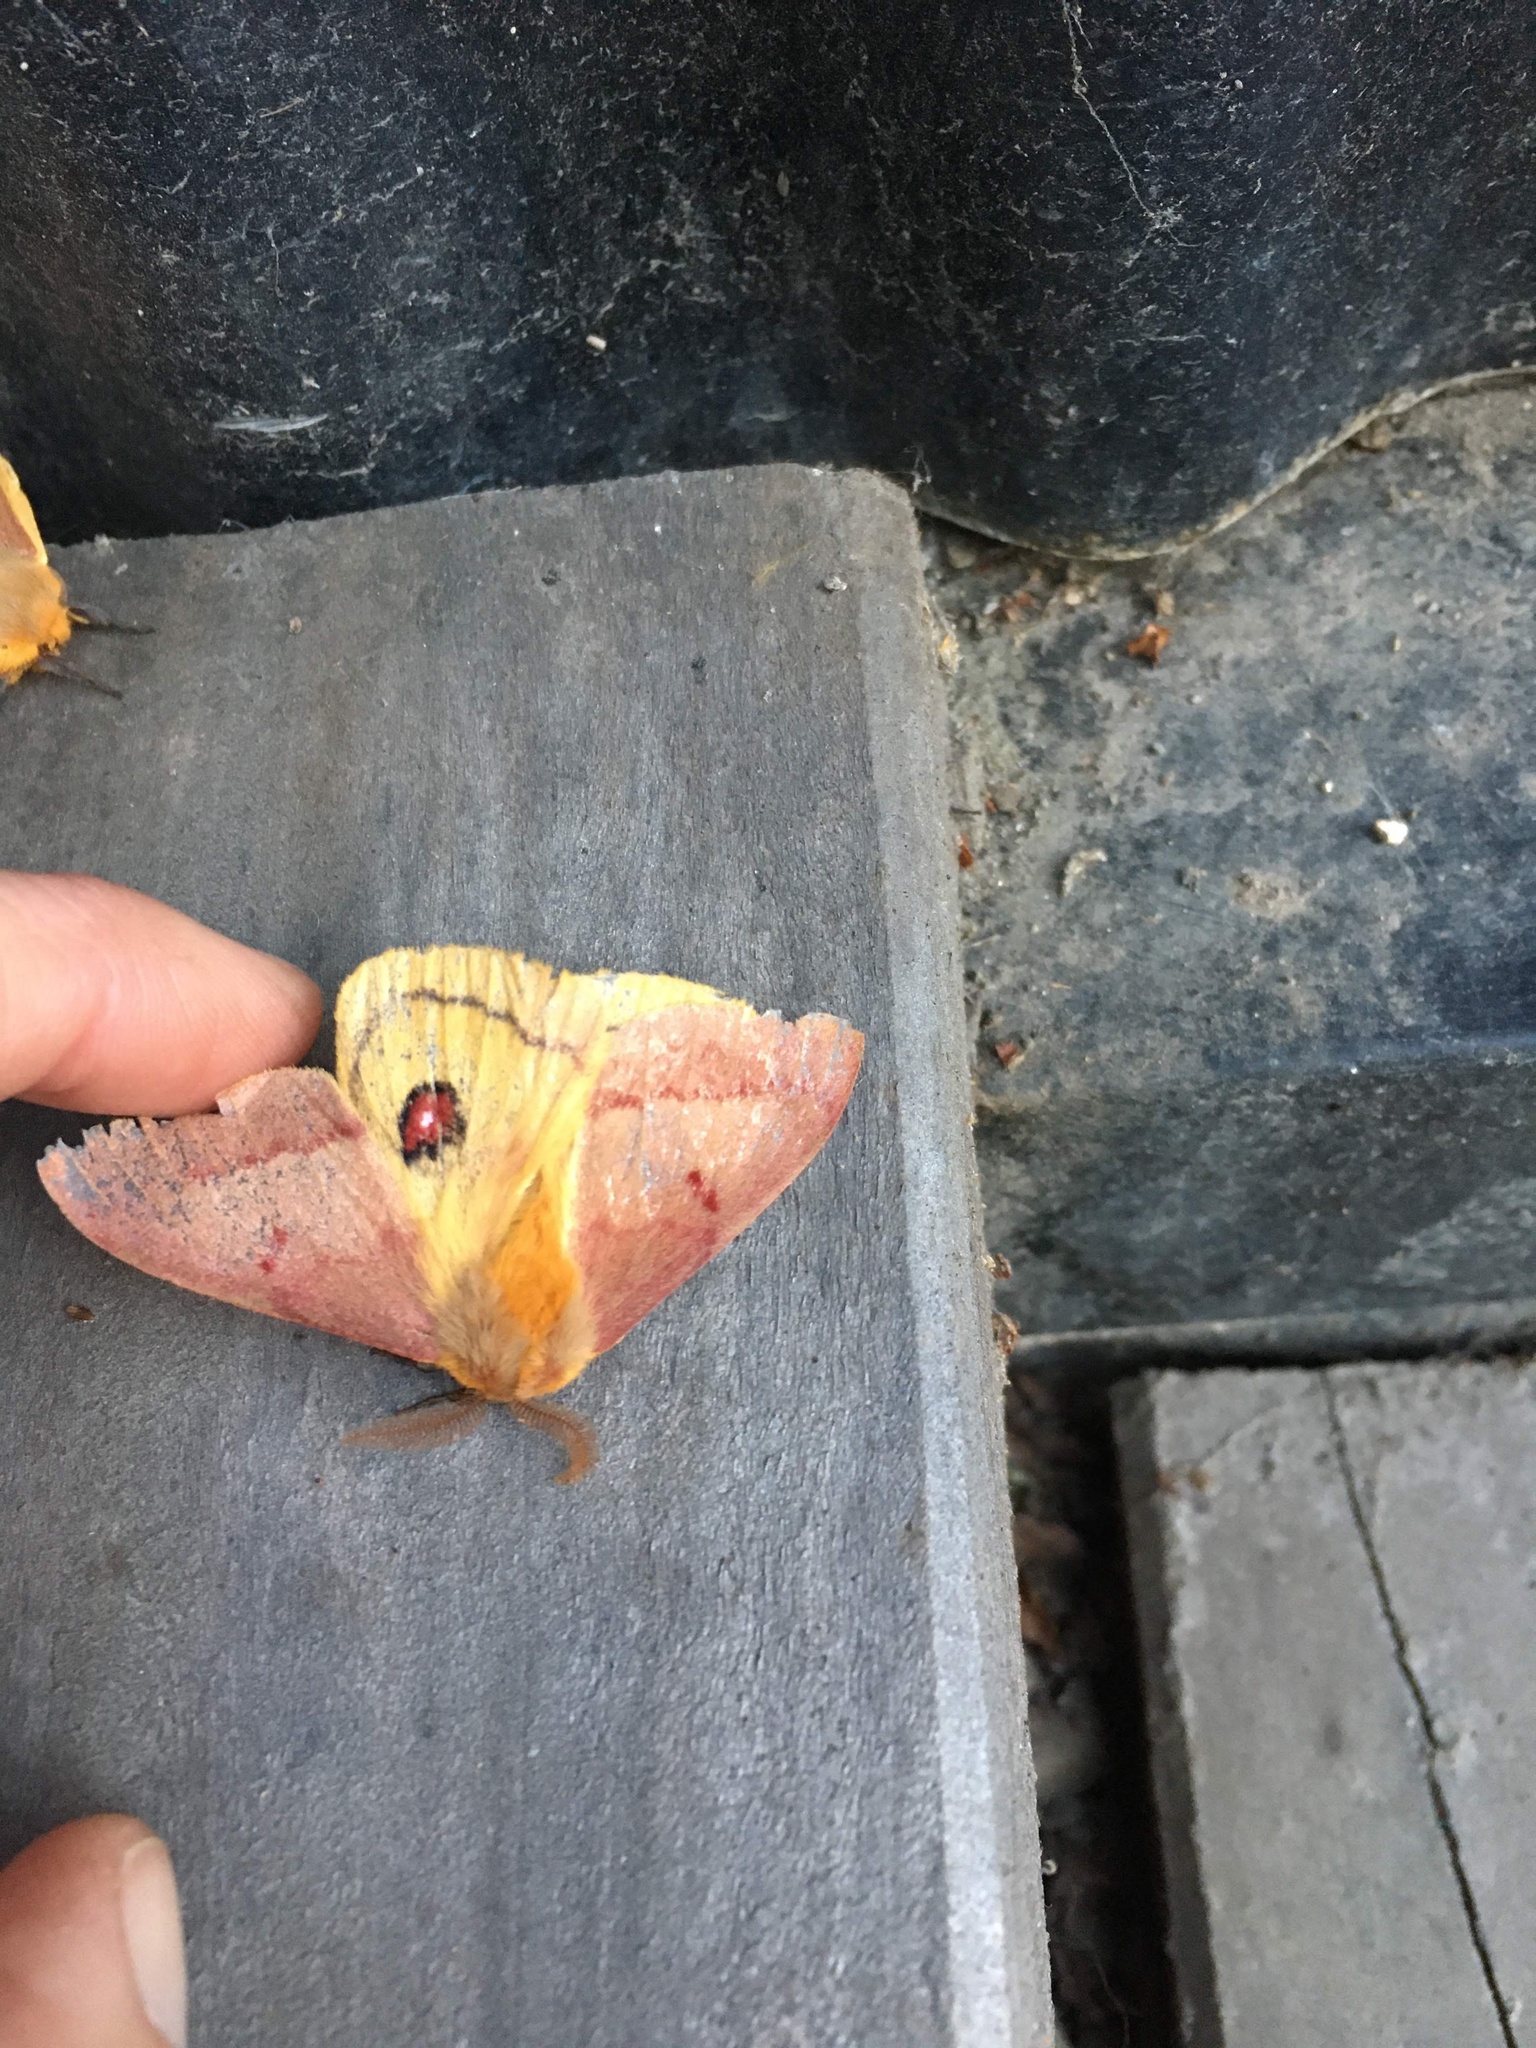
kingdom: Animalia
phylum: Arthropoda
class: Insecta
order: Lepidoptera
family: Saturniidae
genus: Adetomeris
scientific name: Adetomeris erythrops
